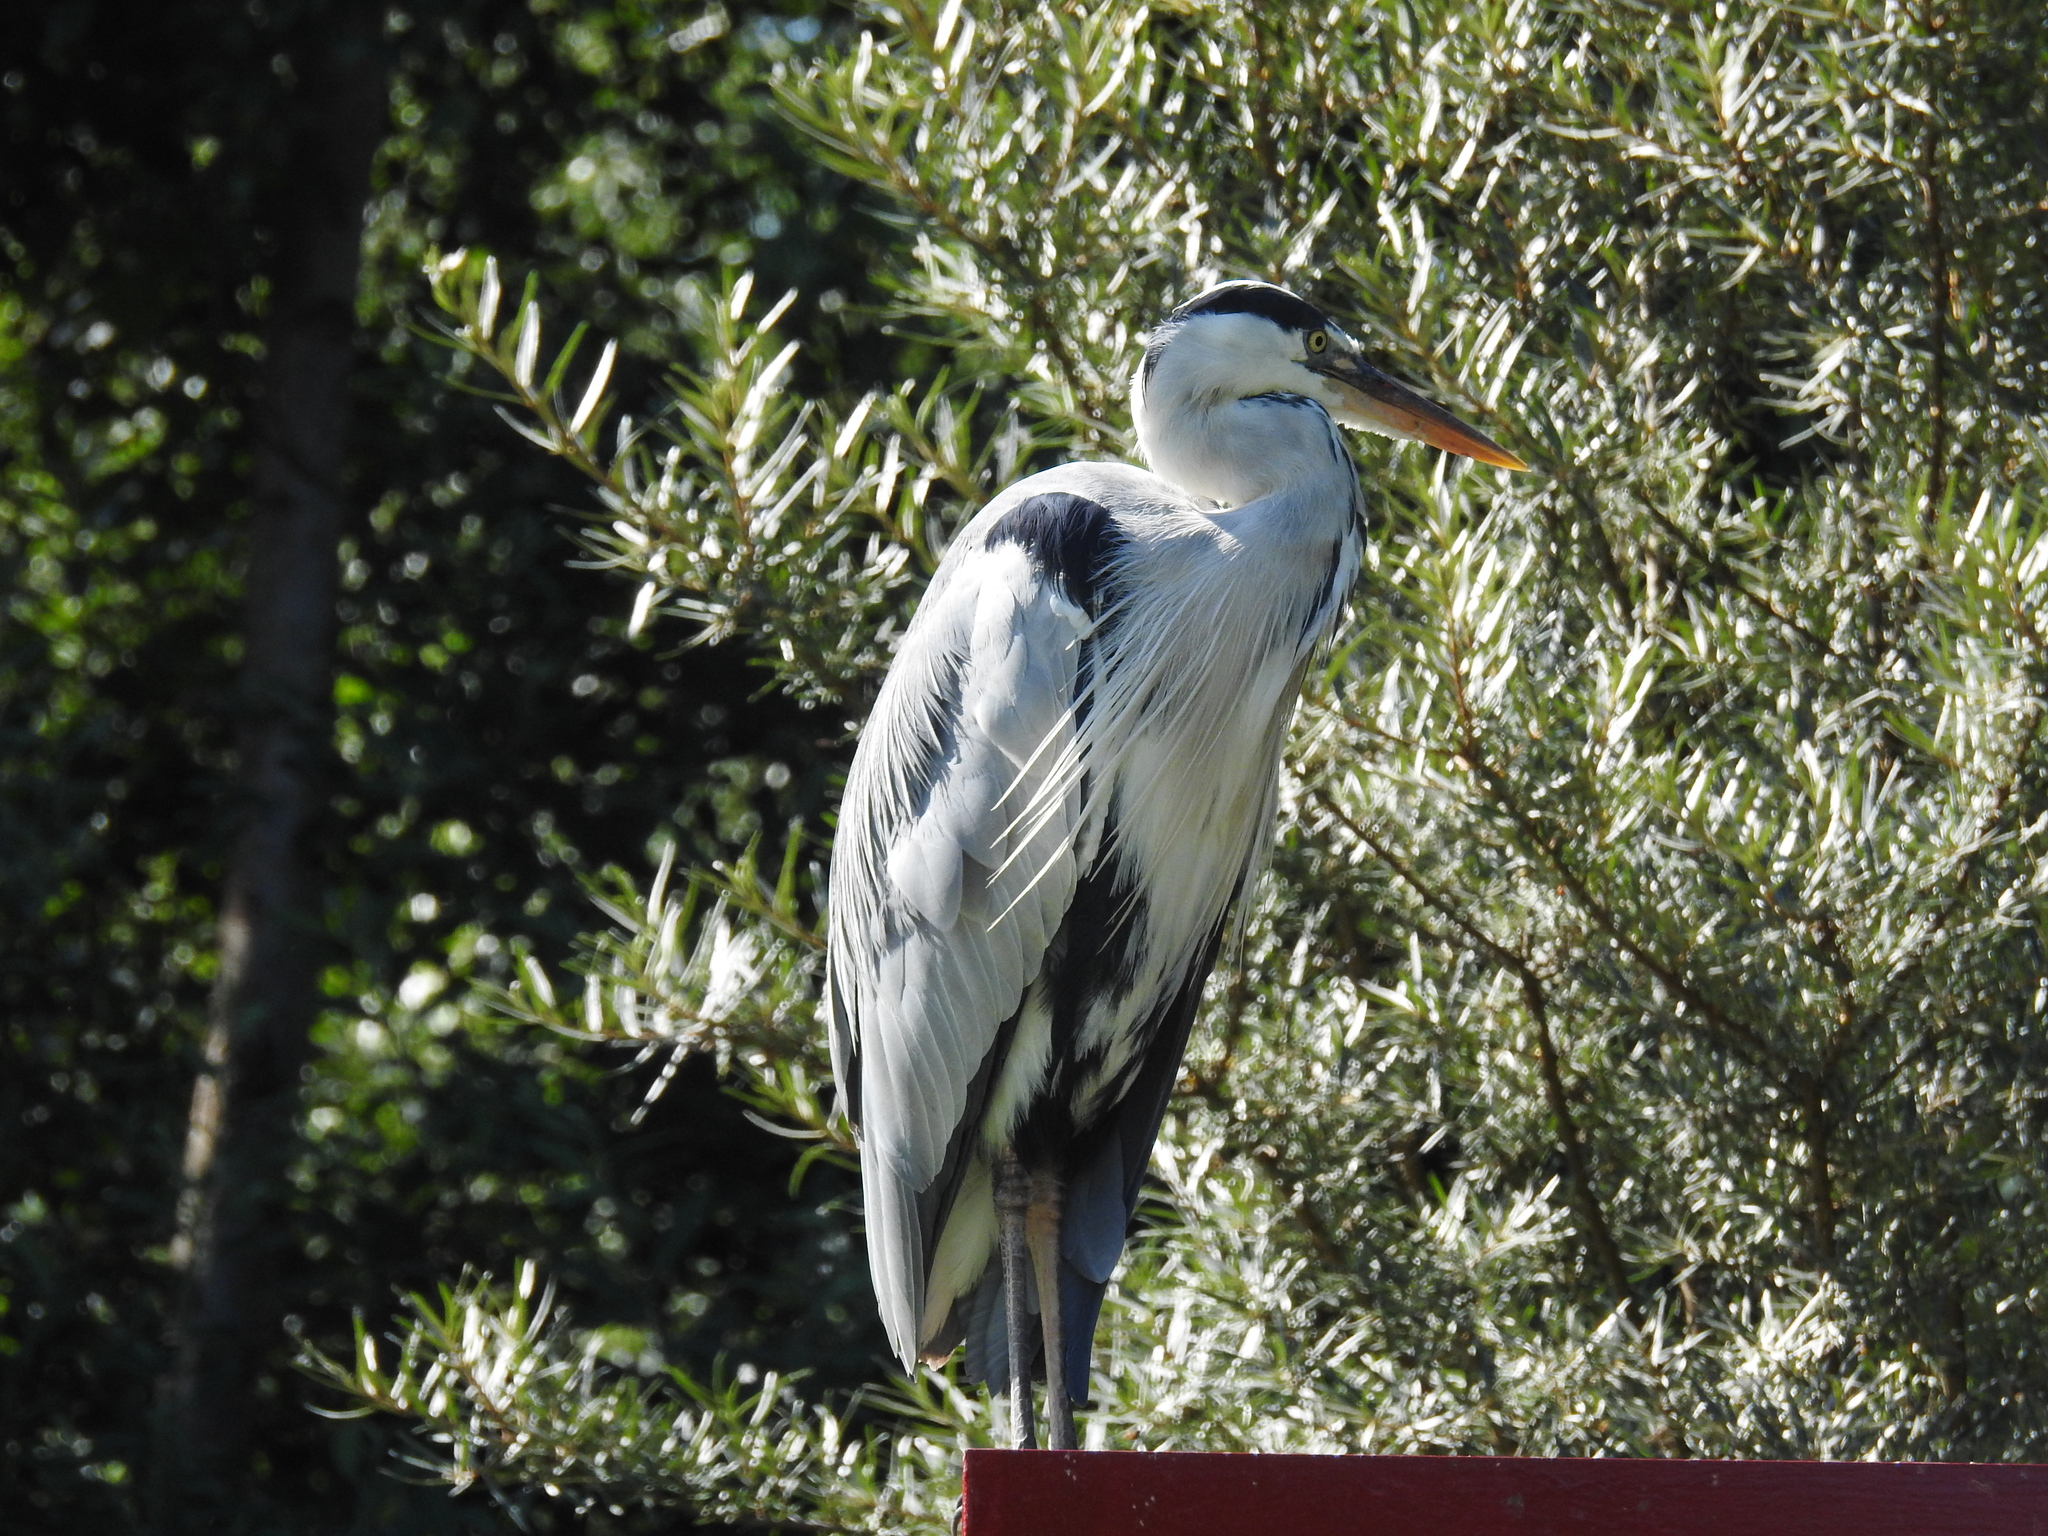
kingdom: Animalia
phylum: Chordata
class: Aves
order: Pelecaniformes
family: Ardeidae
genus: Ardea
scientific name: Ardea cinerea
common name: Grey heron
